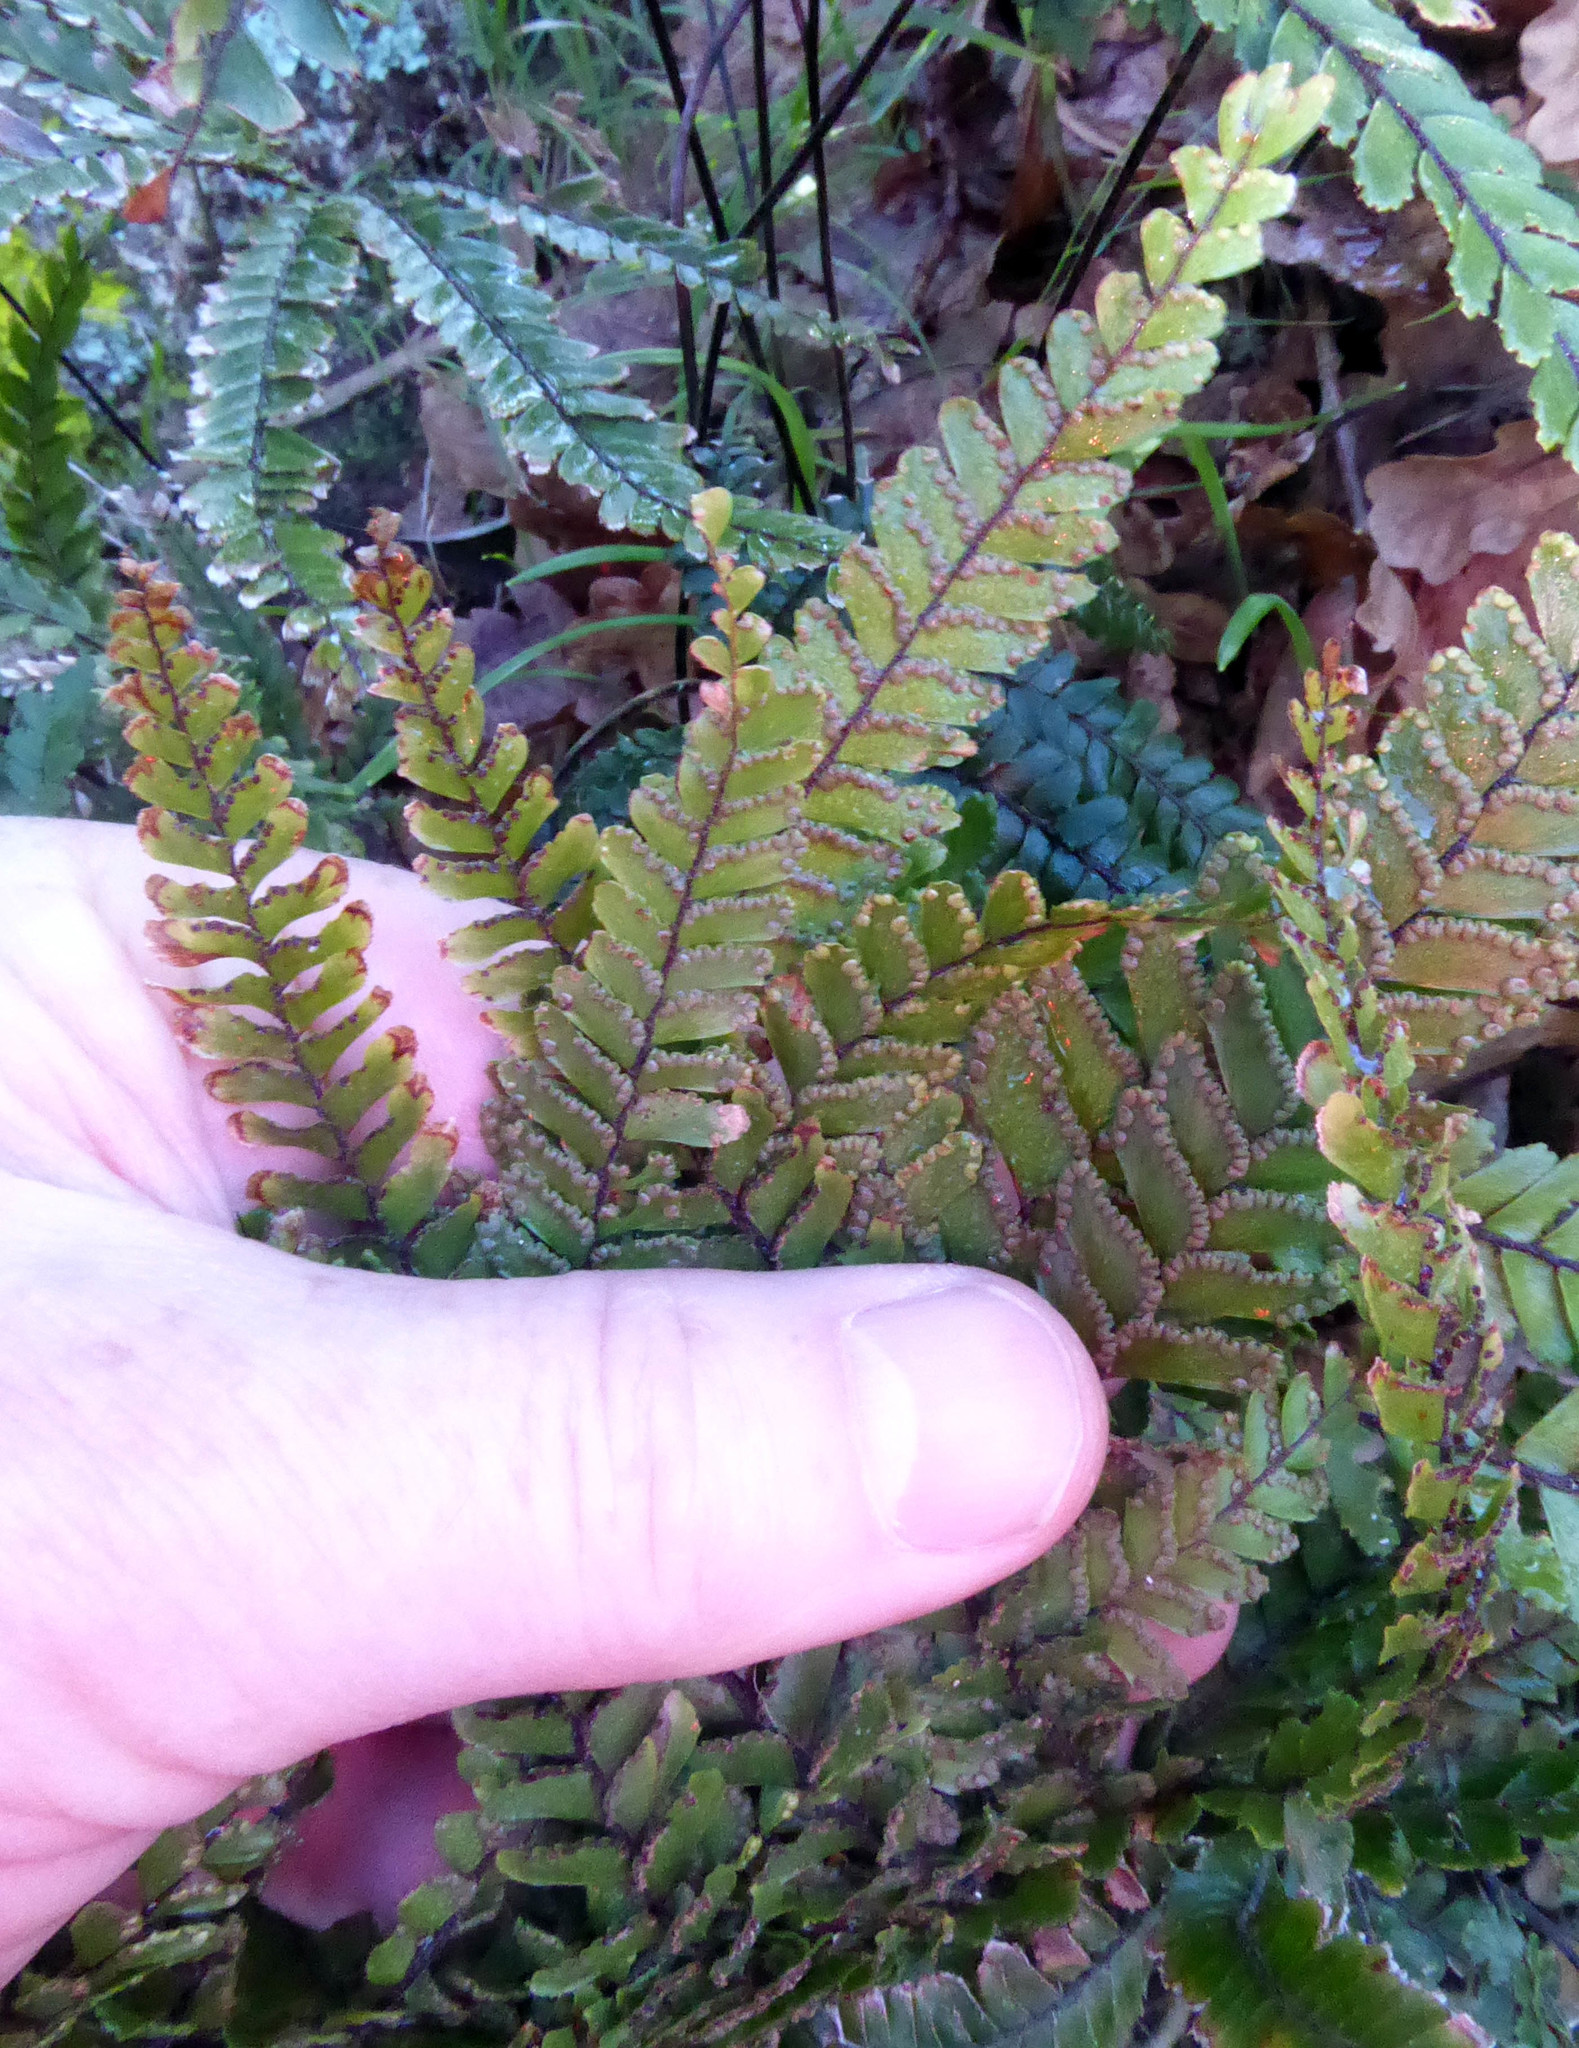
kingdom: Plantae
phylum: Tracheophyta
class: Polypodiopsida
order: Polypodiales
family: Pteridaceae
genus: Adiantum
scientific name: Adiantum hispidulum
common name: Rough maidenhair
